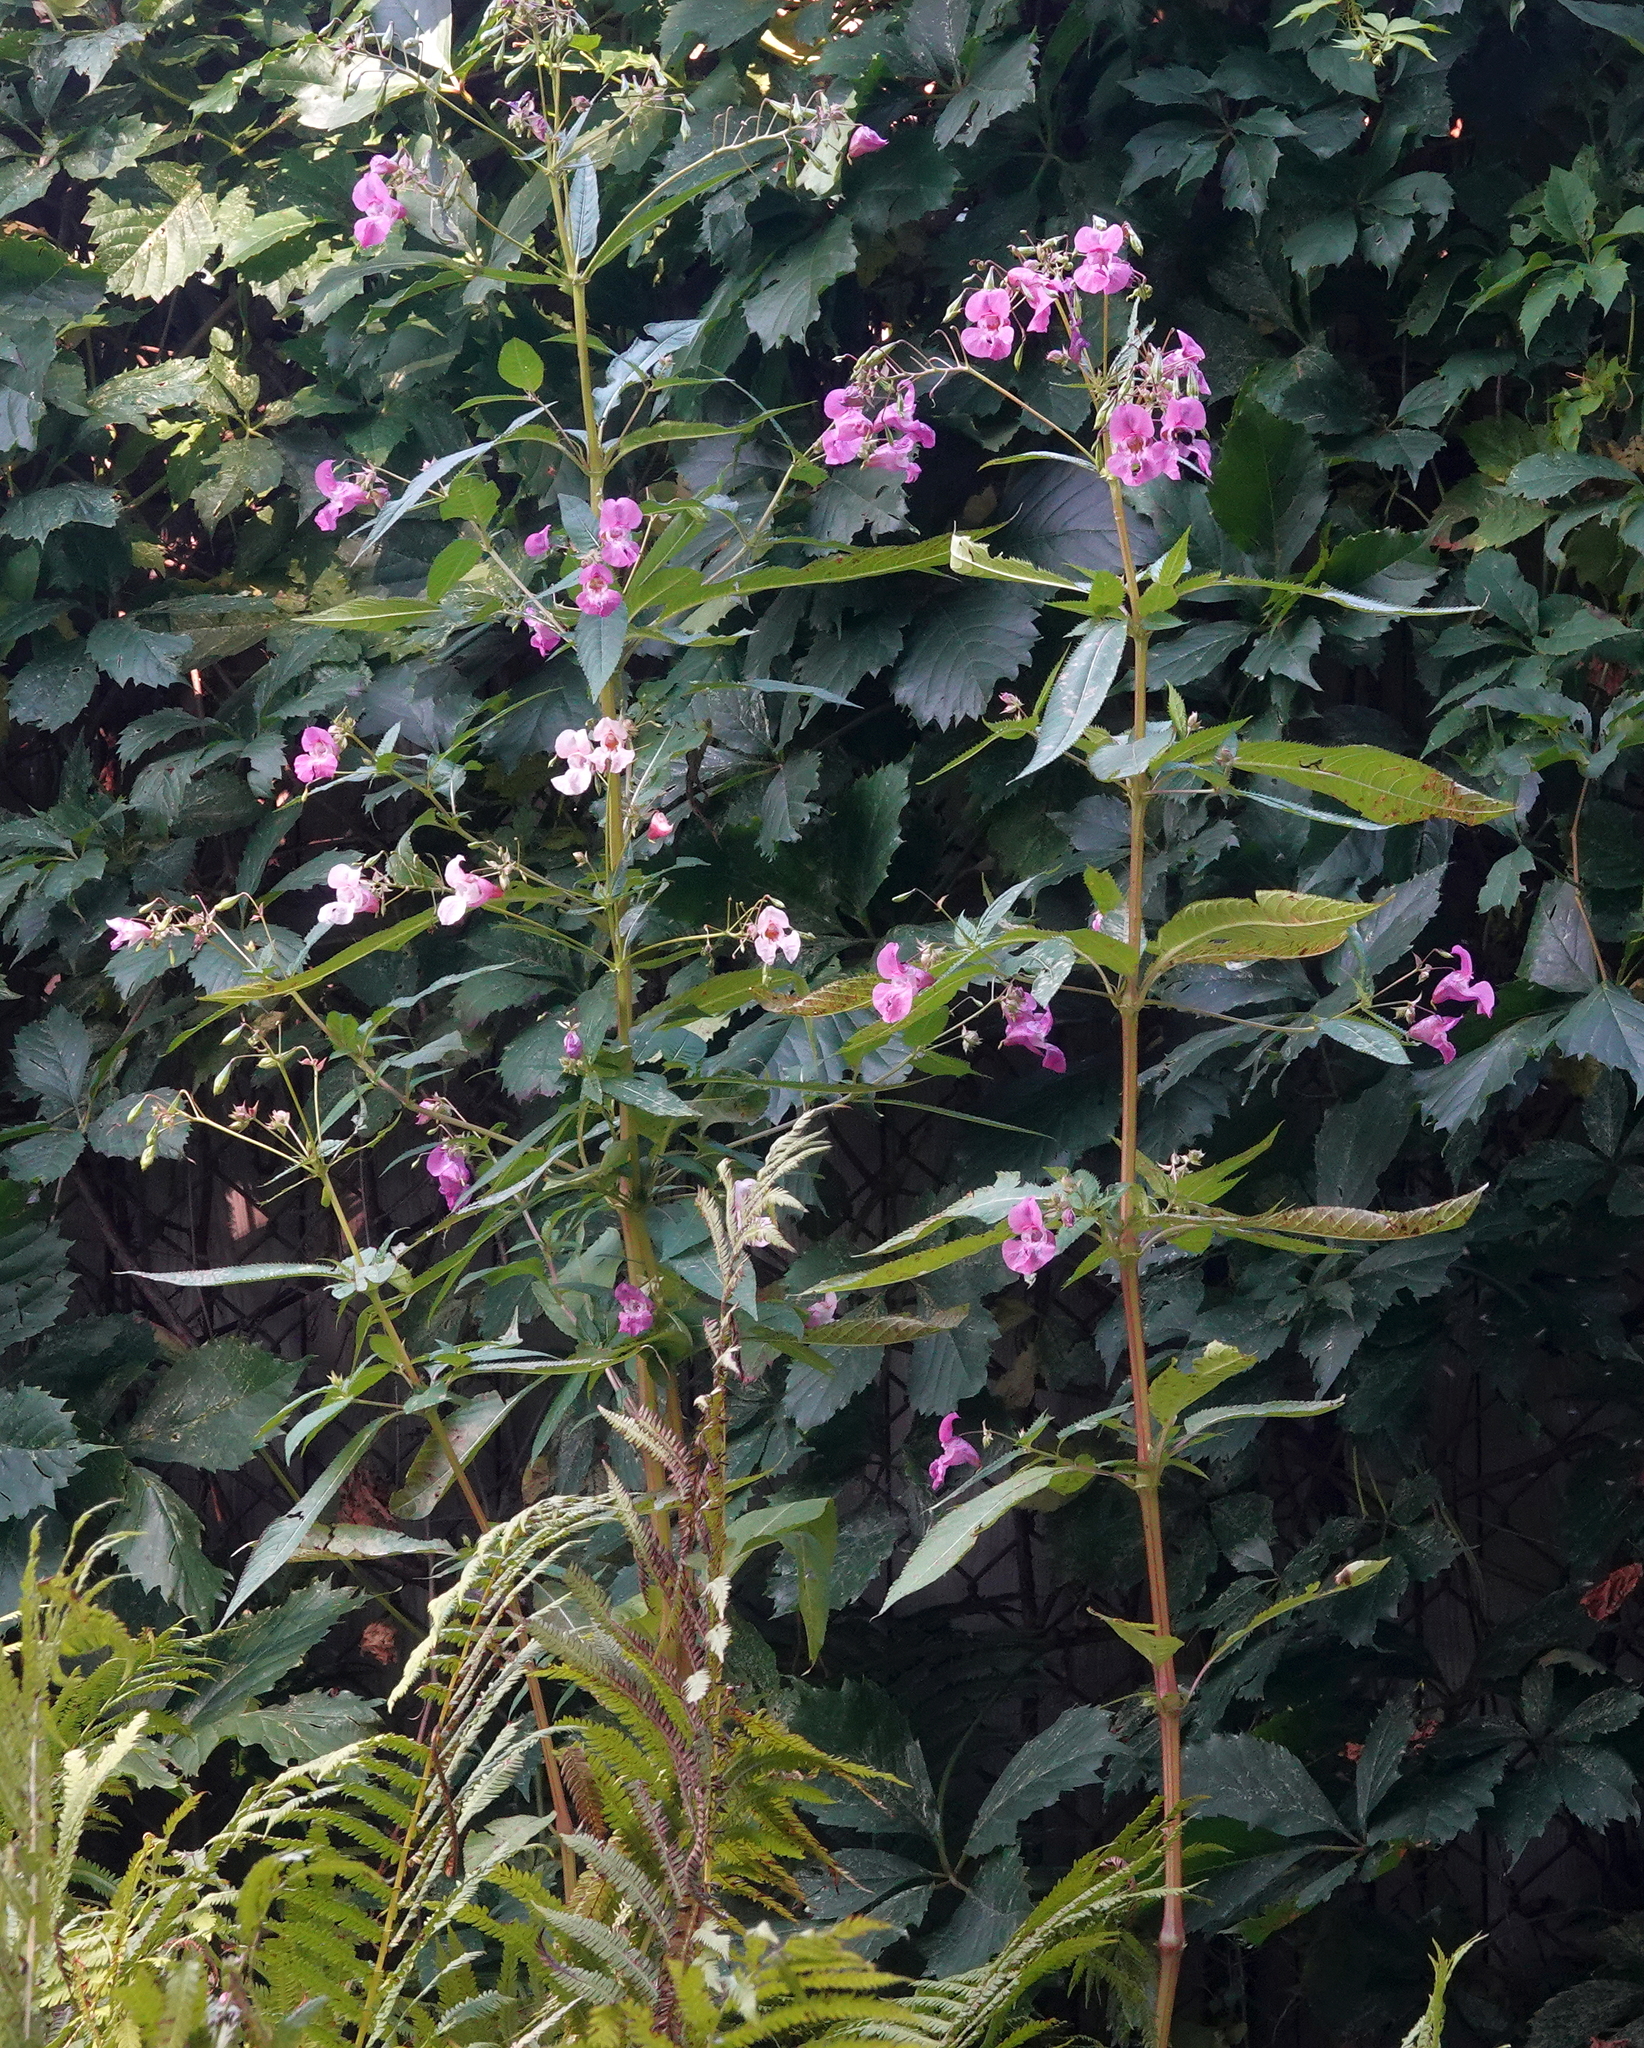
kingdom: Plantae
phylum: Tracheophyta
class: Magnoliopsida
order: Ericales
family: Balsaminaceae
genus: Impatiens
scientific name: Impatiens glandulifera
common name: Himalayan balsam
